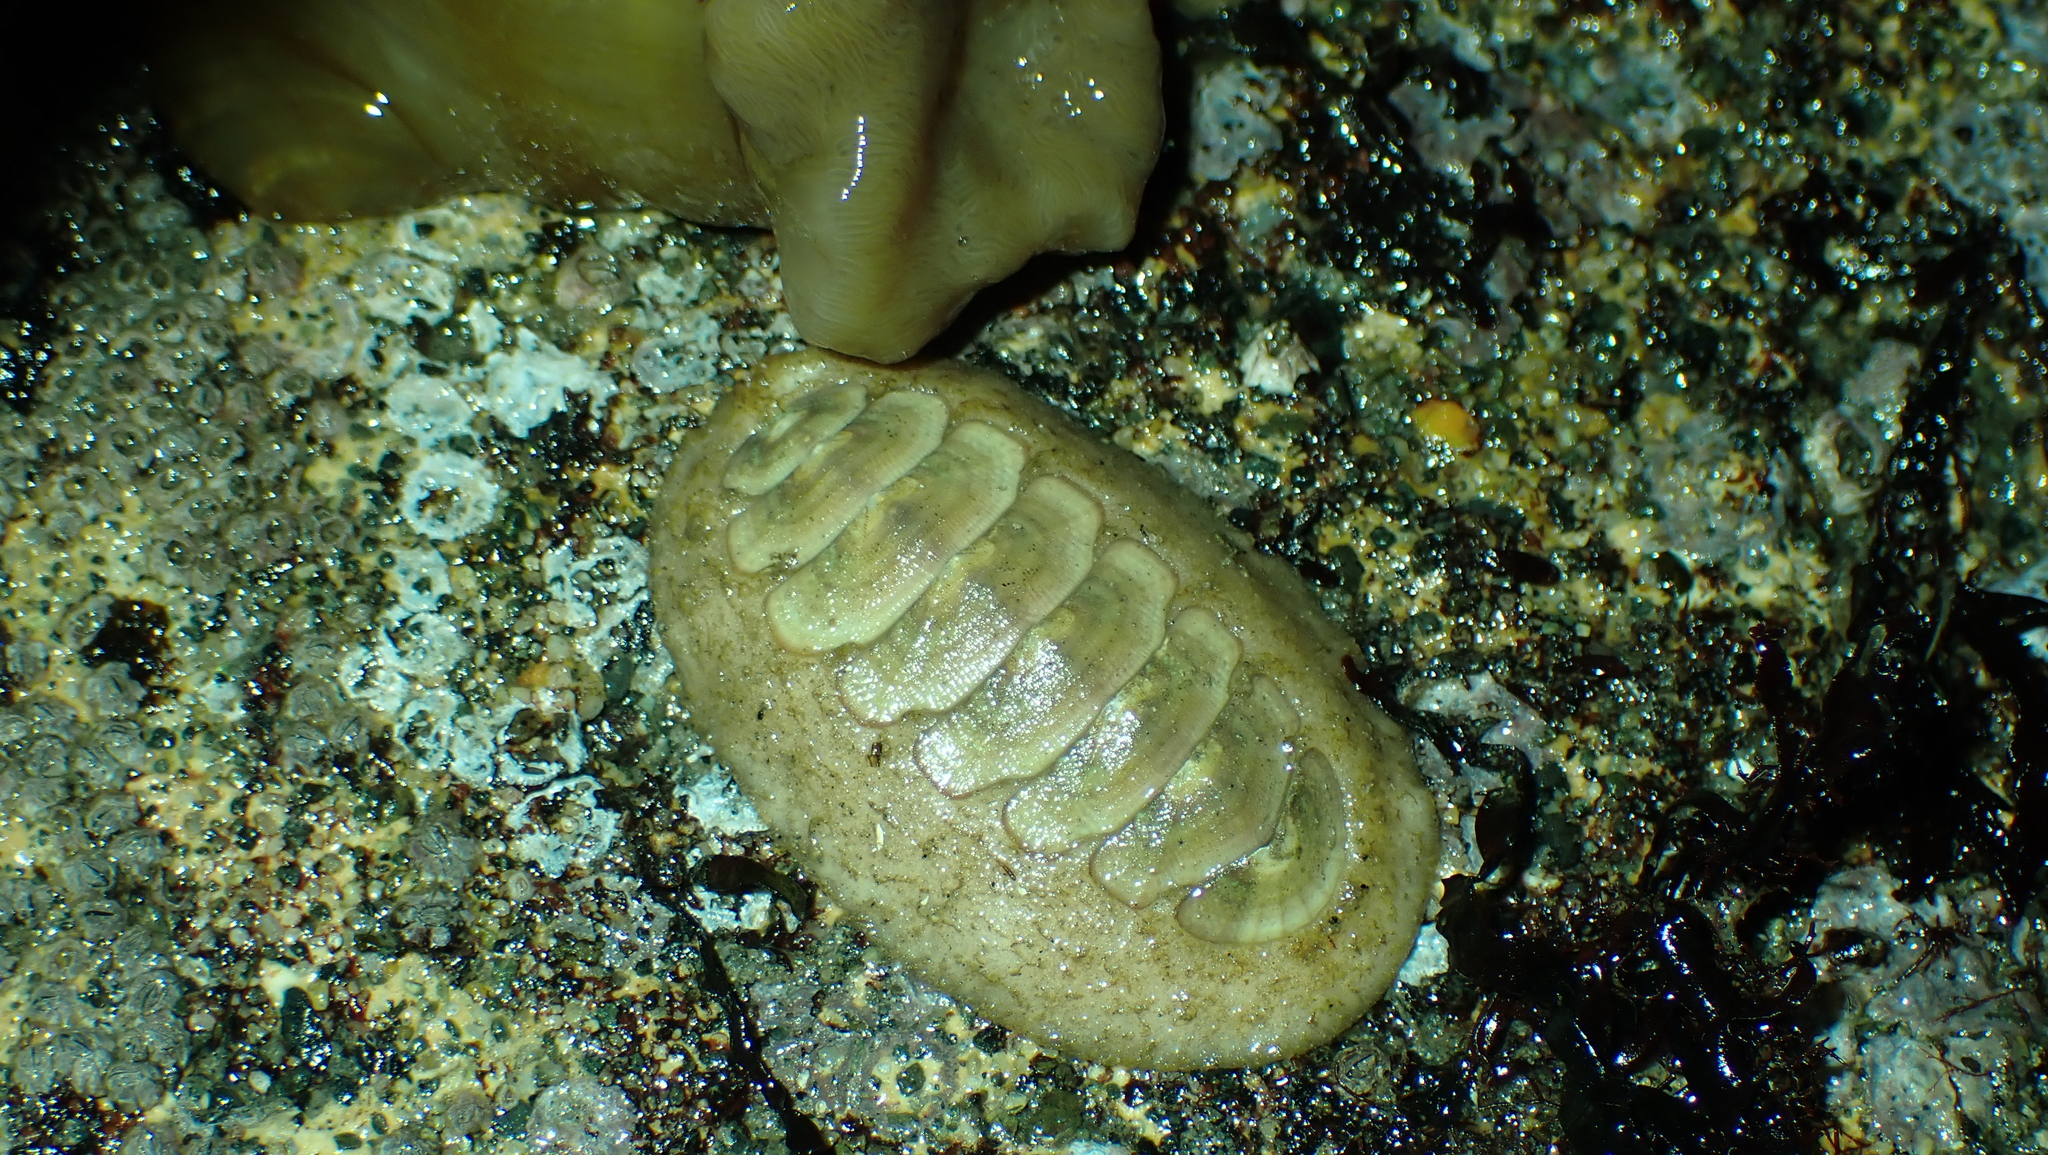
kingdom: Animalia
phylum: Mollusca
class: Polyplacophora
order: Chitonida
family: Mopaliidae
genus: Mopalia
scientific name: Mopalia swanii
